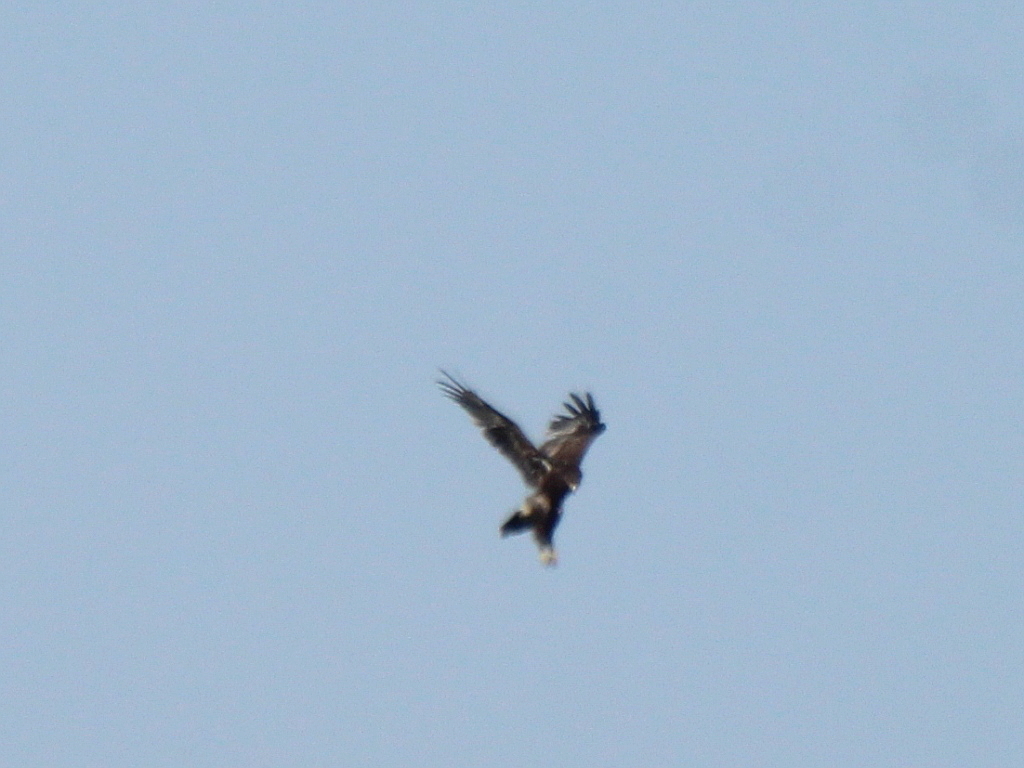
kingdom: Animalia
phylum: Chordata
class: Aves
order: Accipitriformes
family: Accipitridae
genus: Aquila
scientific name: Aquila clanga
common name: Greater spotted eagle
